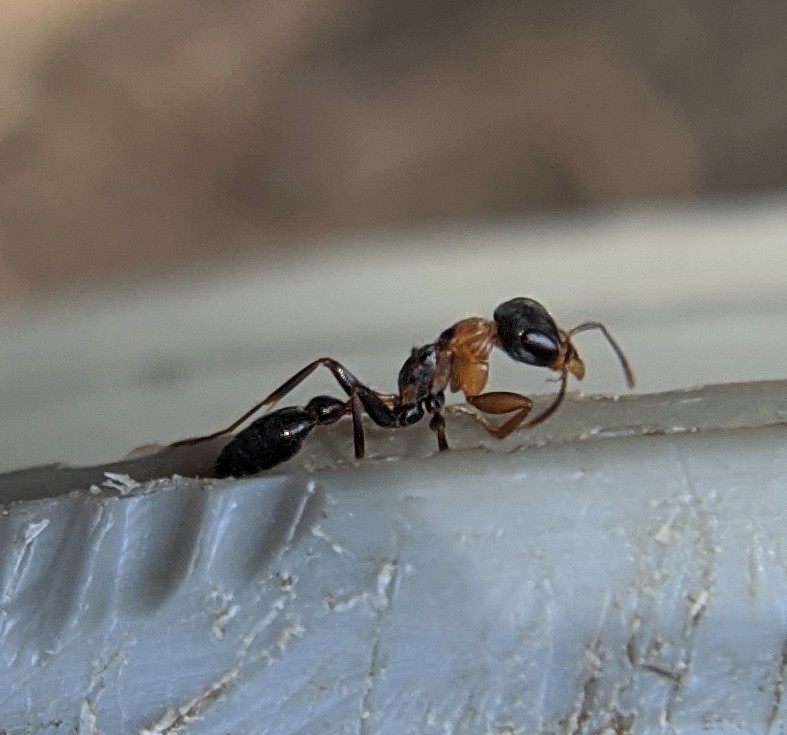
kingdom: Animalia
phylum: Arthropoda
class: Insecta
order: Hymenoptera
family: Formicidae
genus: Pseudomyrmex
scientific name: Pseudomyrmex gracilis
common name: Graceful twig ant
